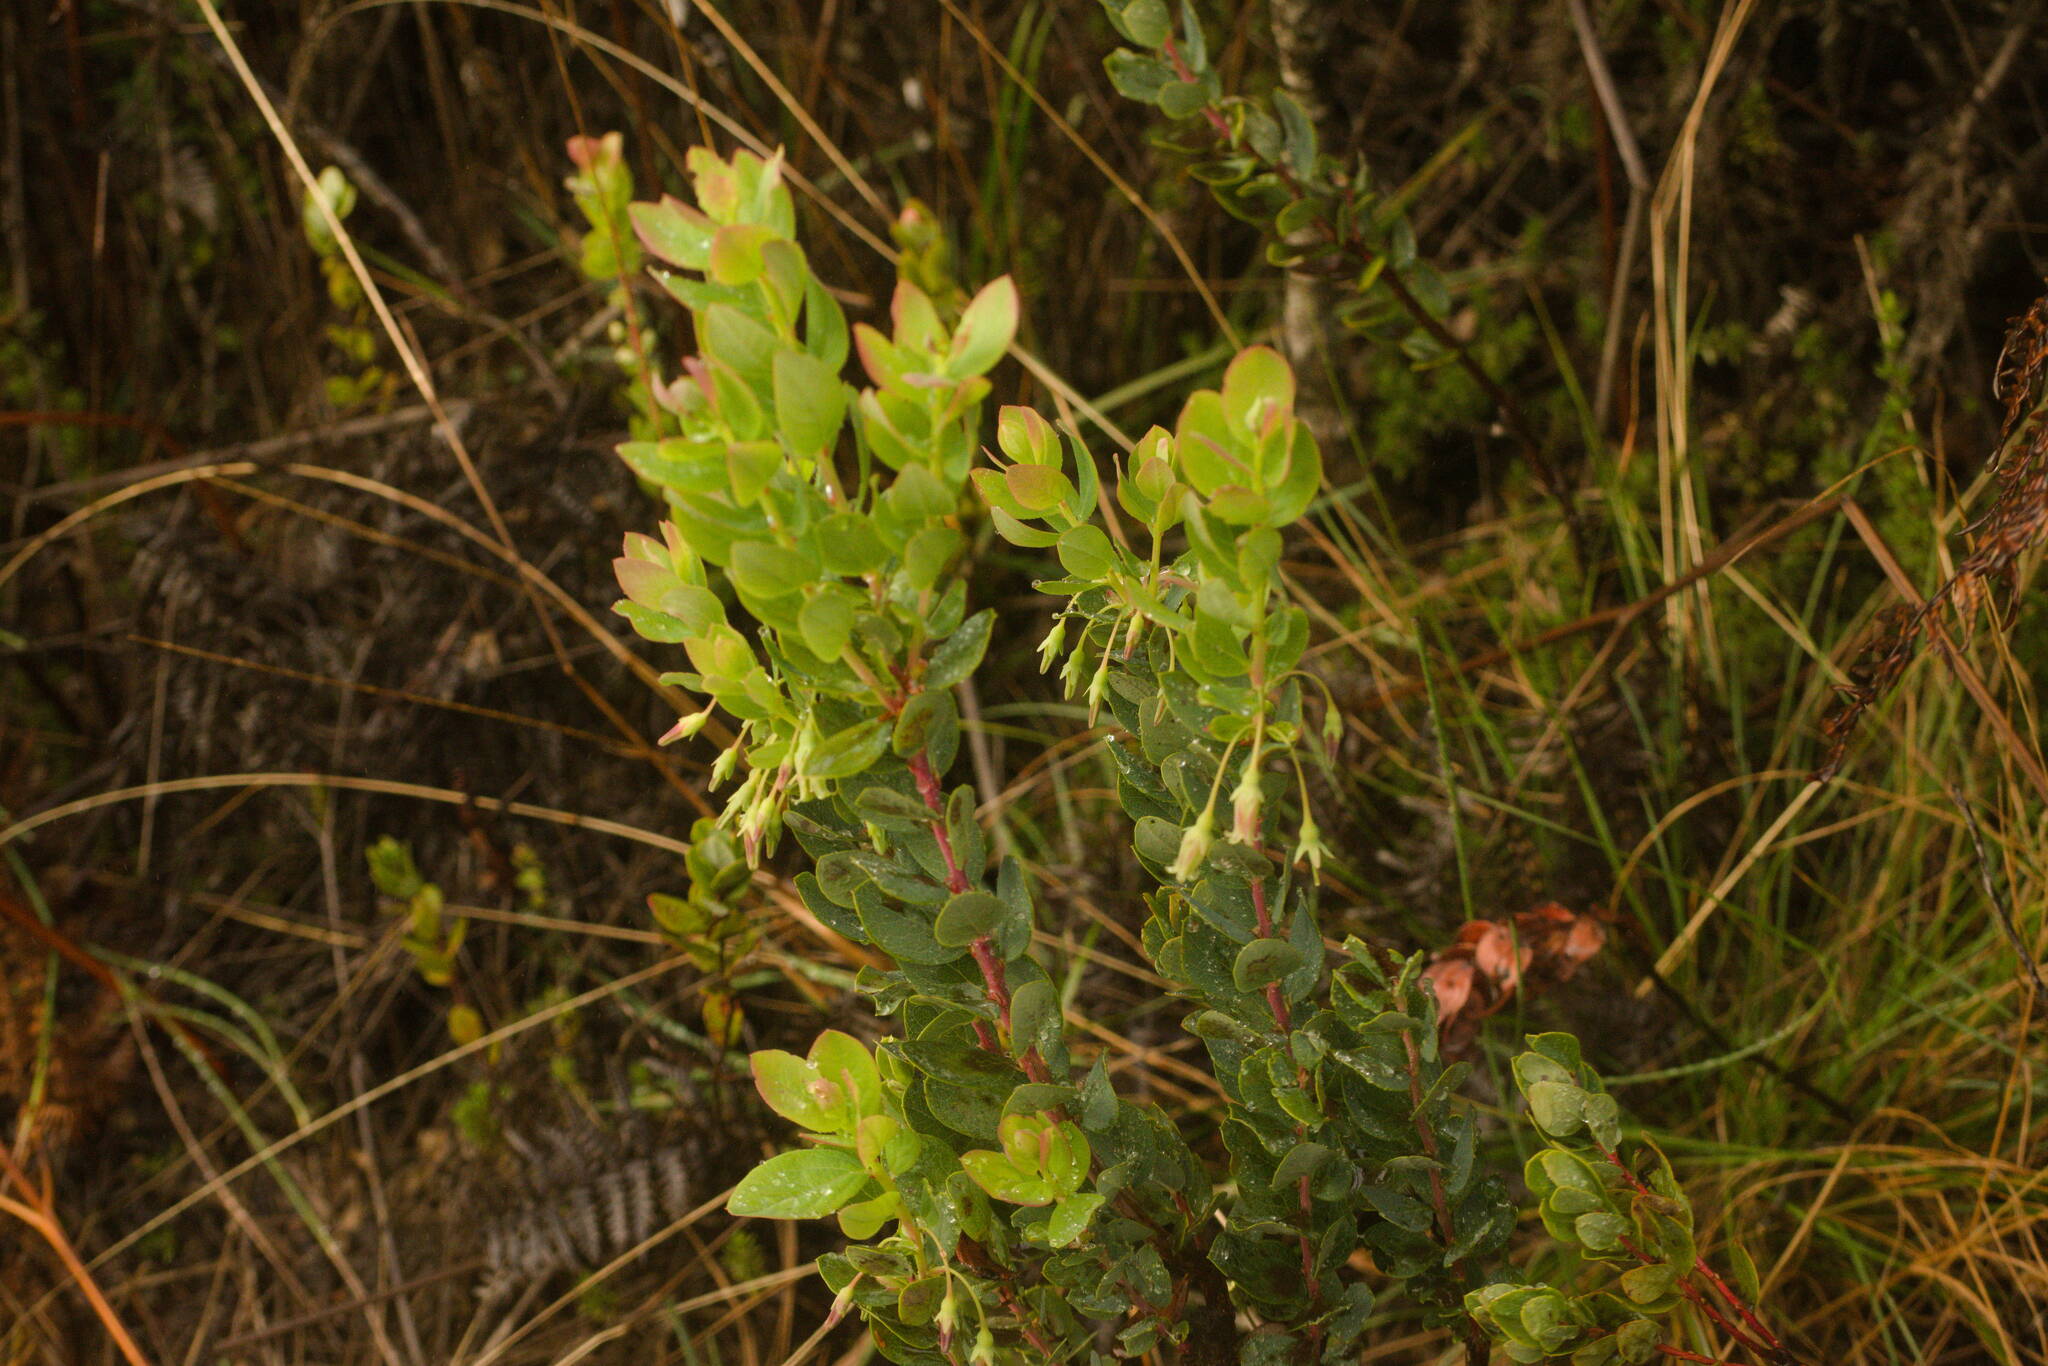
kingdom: Plantae
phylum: Tracheophyta
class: Magnoliopsida
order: Ericales
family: Ericaceae
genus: Vaccinium
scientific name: Vaccinium reticulatum
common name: Ohelo
